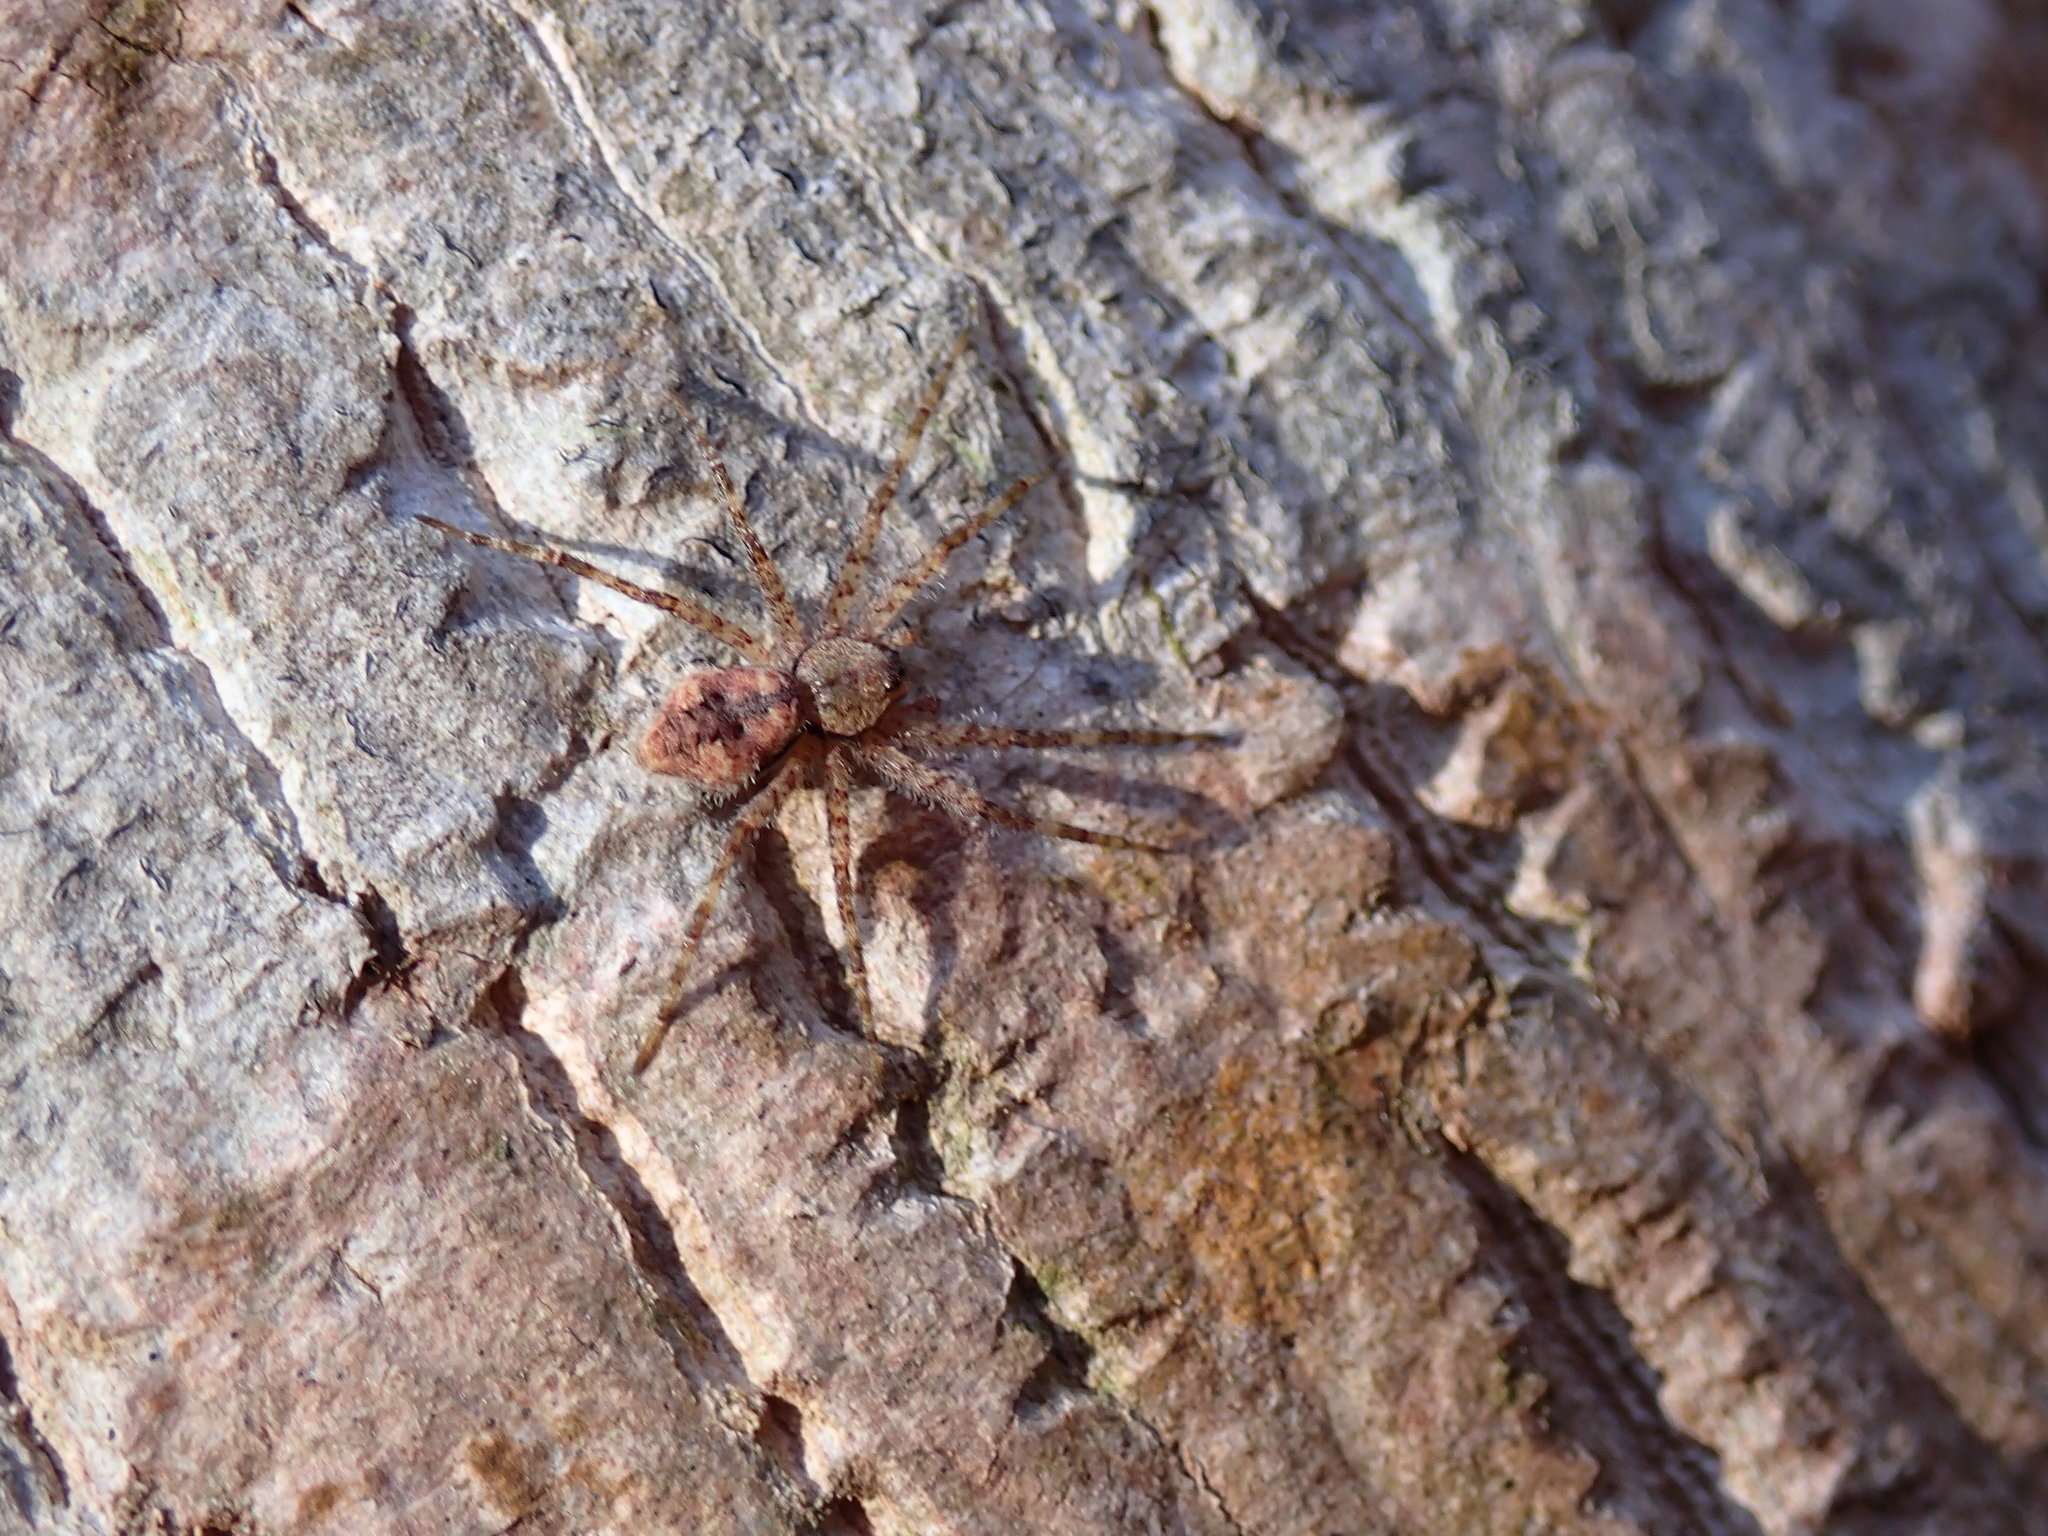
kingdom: Animalia
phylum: Arthropoda
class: Arachnida
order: Araneae
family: Pisauridae
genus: Dolomedes
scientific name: Dolomedes albineus
